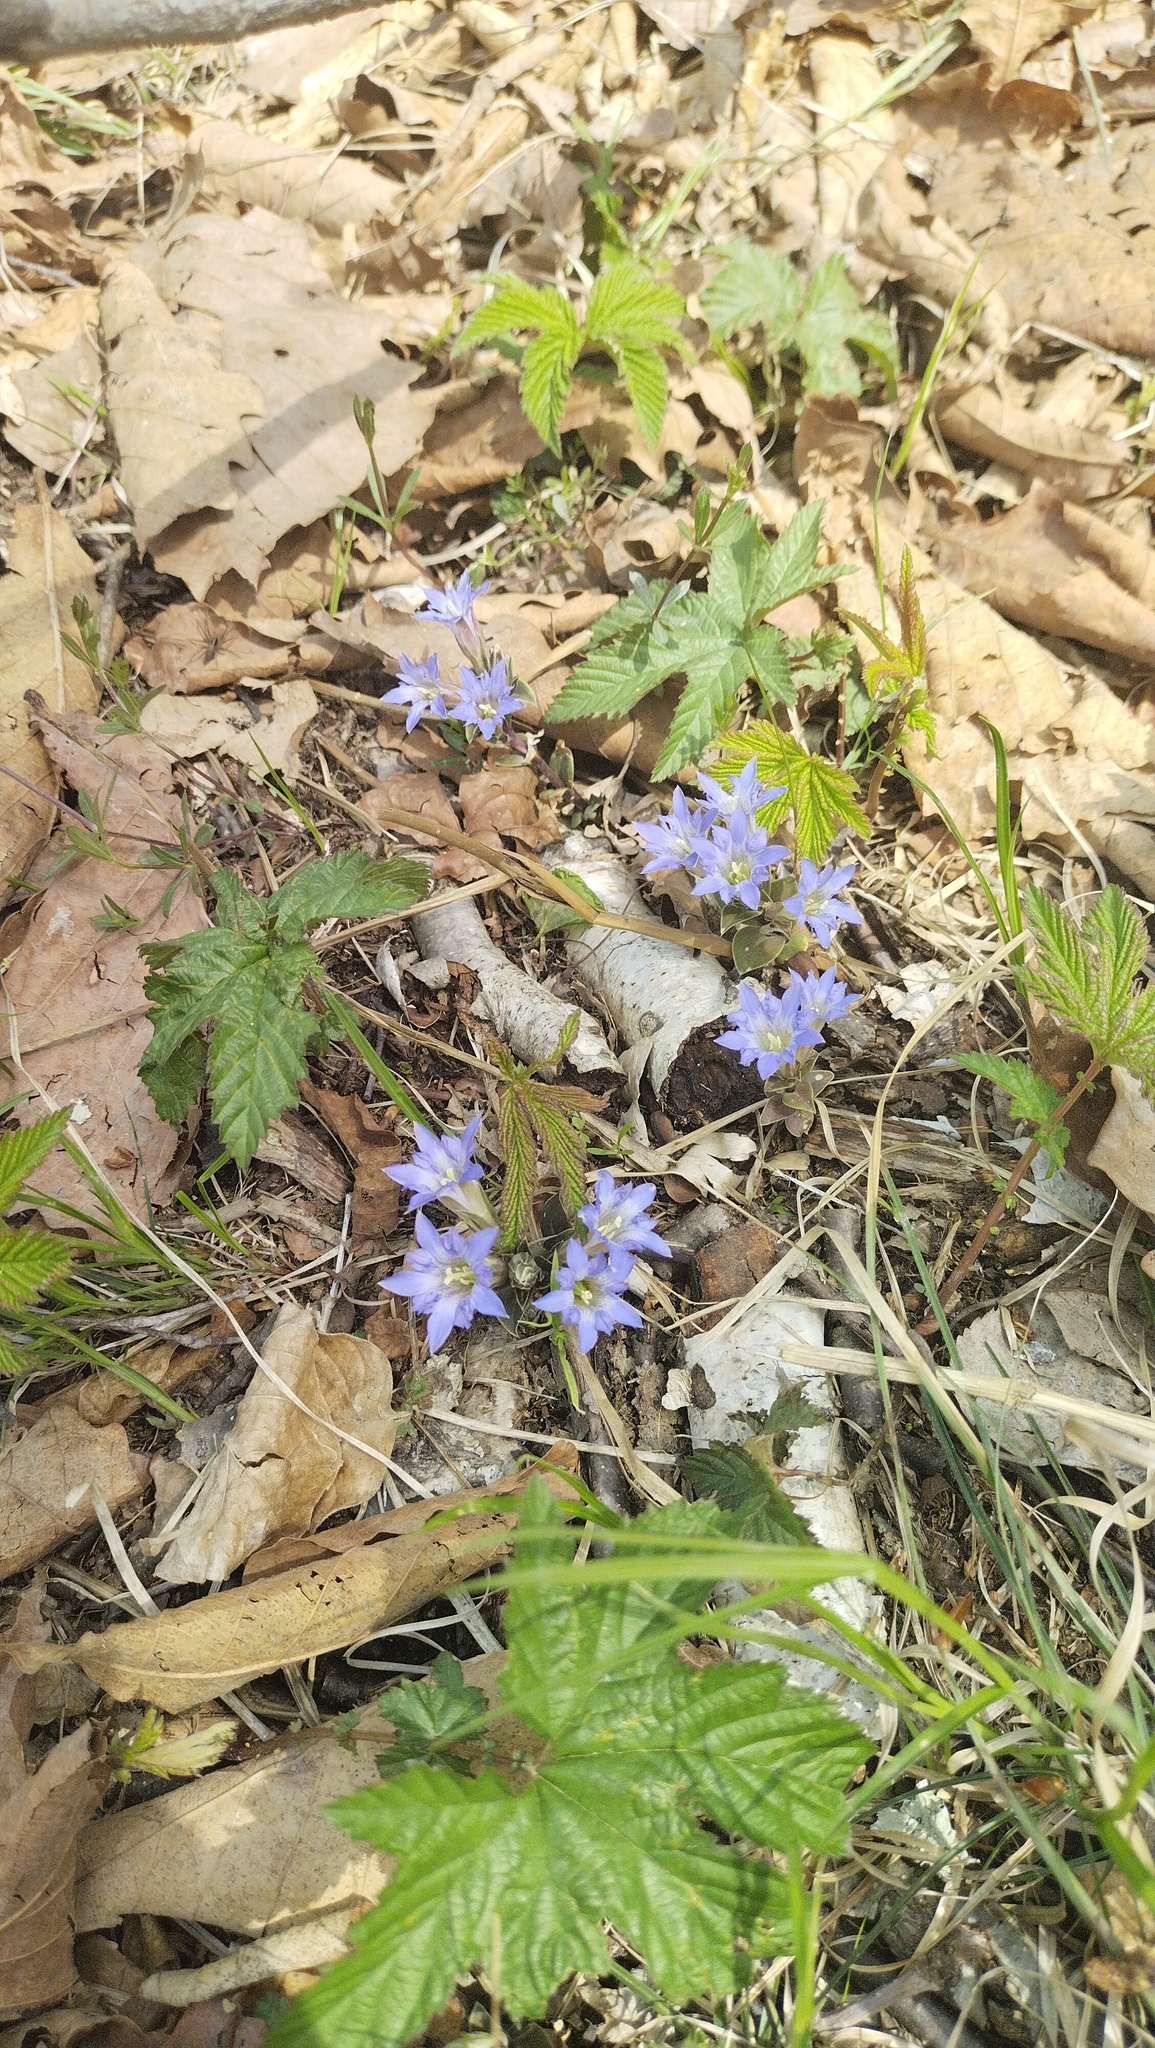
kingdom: Plantae
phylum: Tracheophyta
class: Magnoliopsida
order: Gentianales
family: Gentianaceae
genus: Gentiana
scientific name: Gentiana zollingeri
